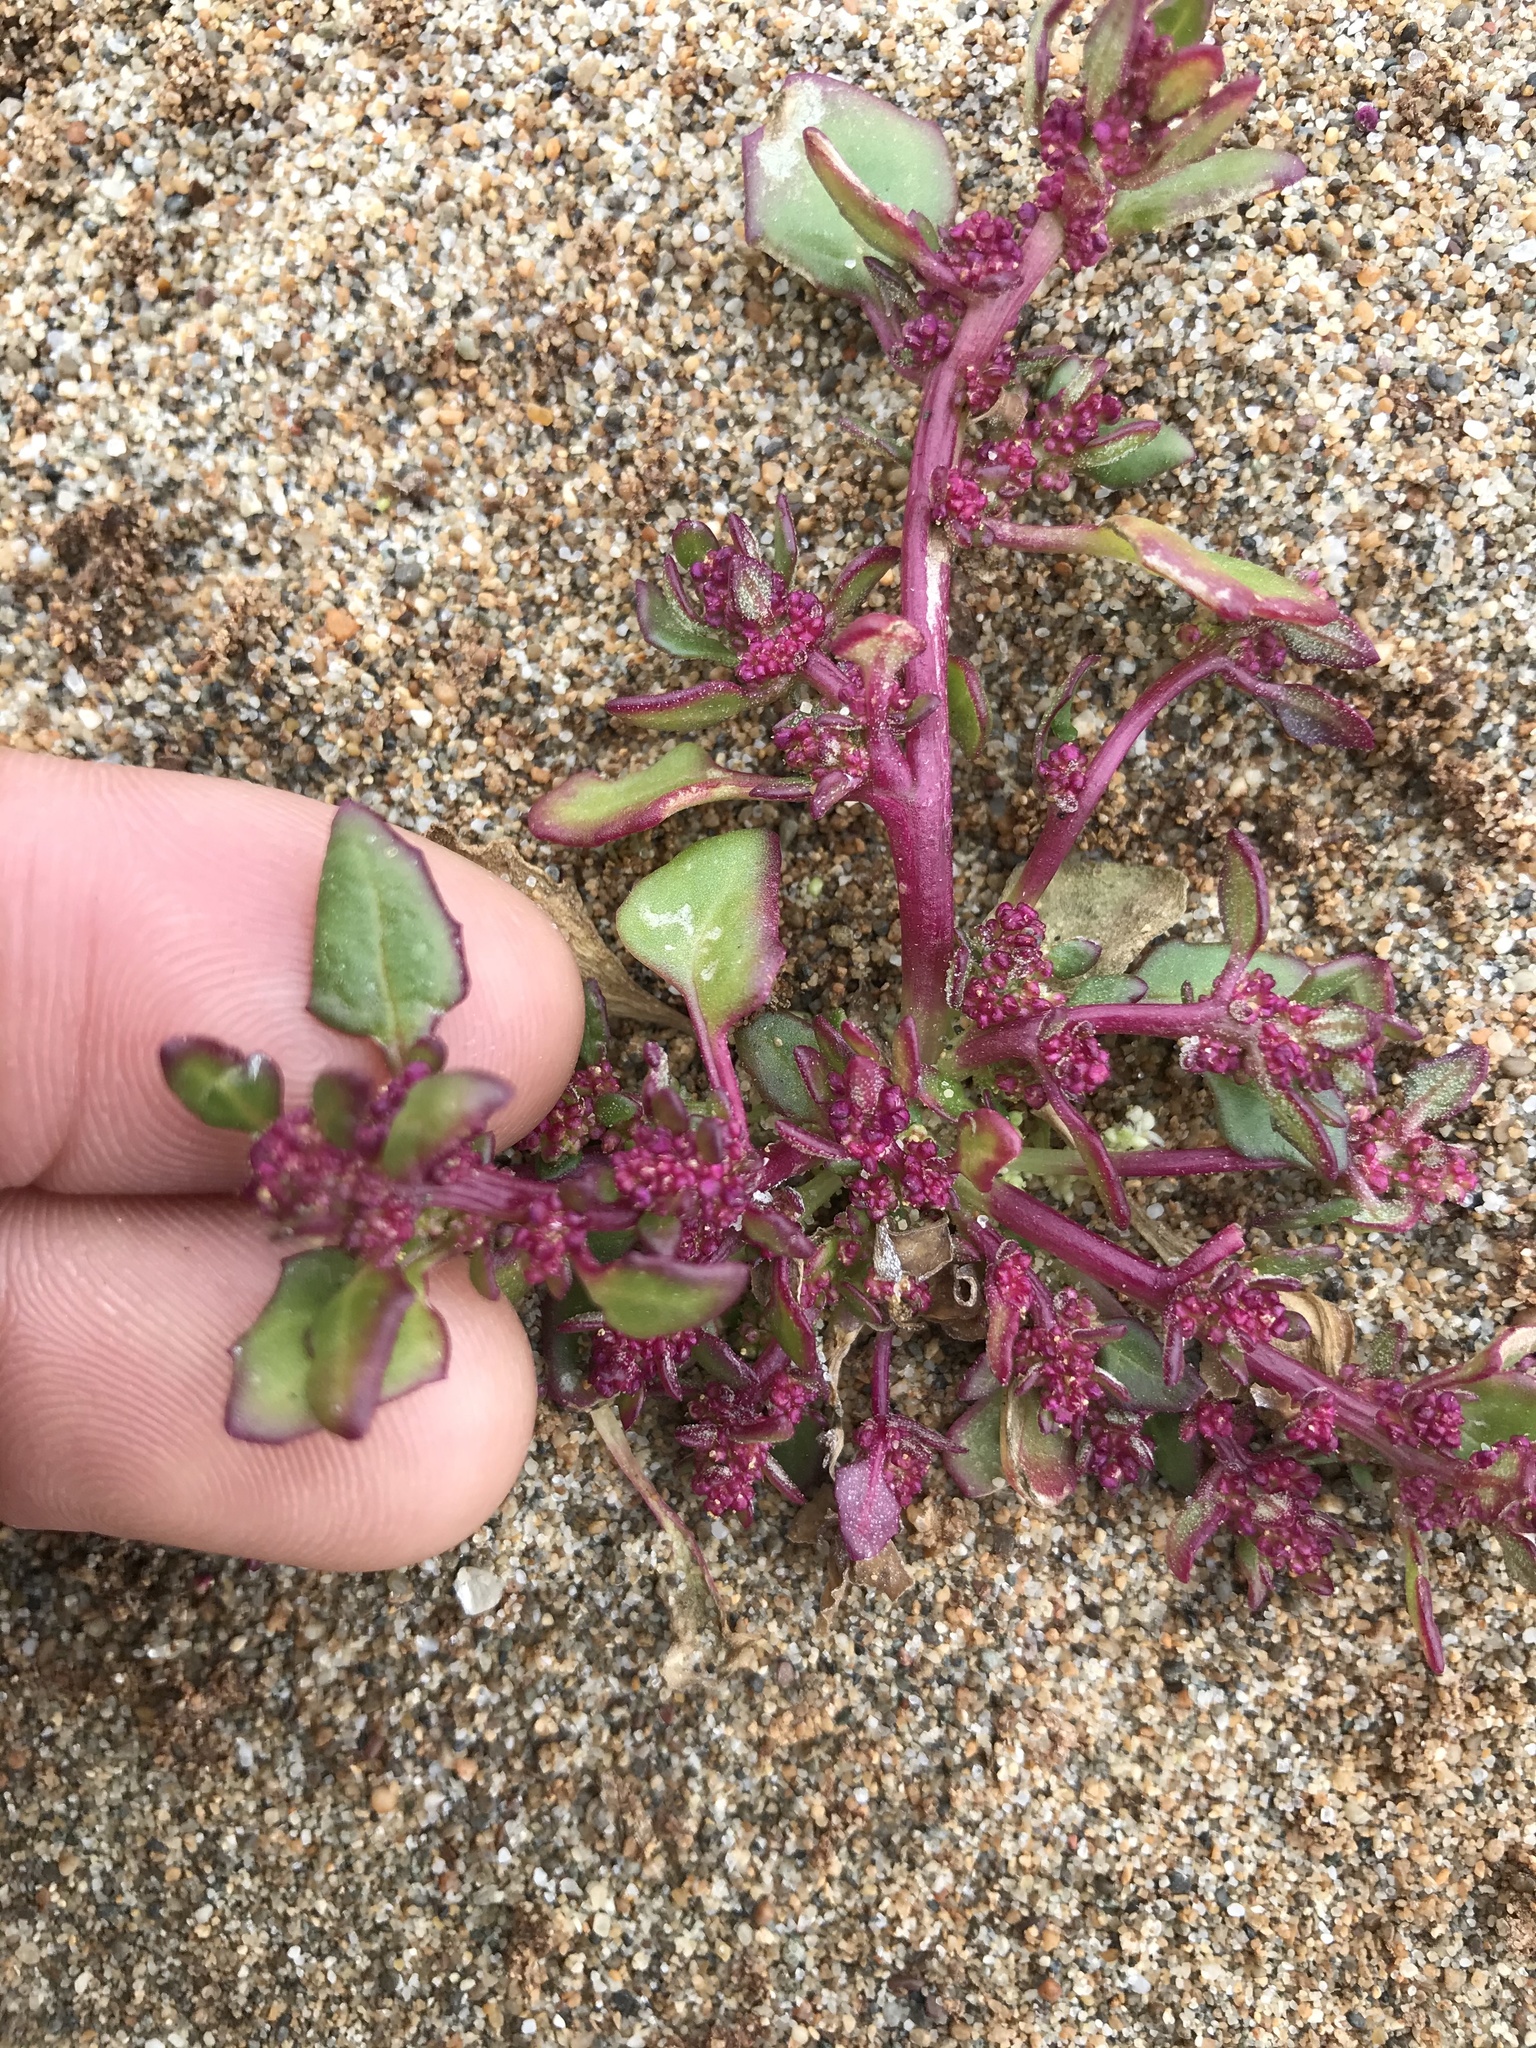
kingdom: Plantae
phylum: Tracheophyta
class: Magnoliopsida
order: Caryophyllales
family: Amaranthaceae
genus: Oxybasis
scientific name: Oxybasis
